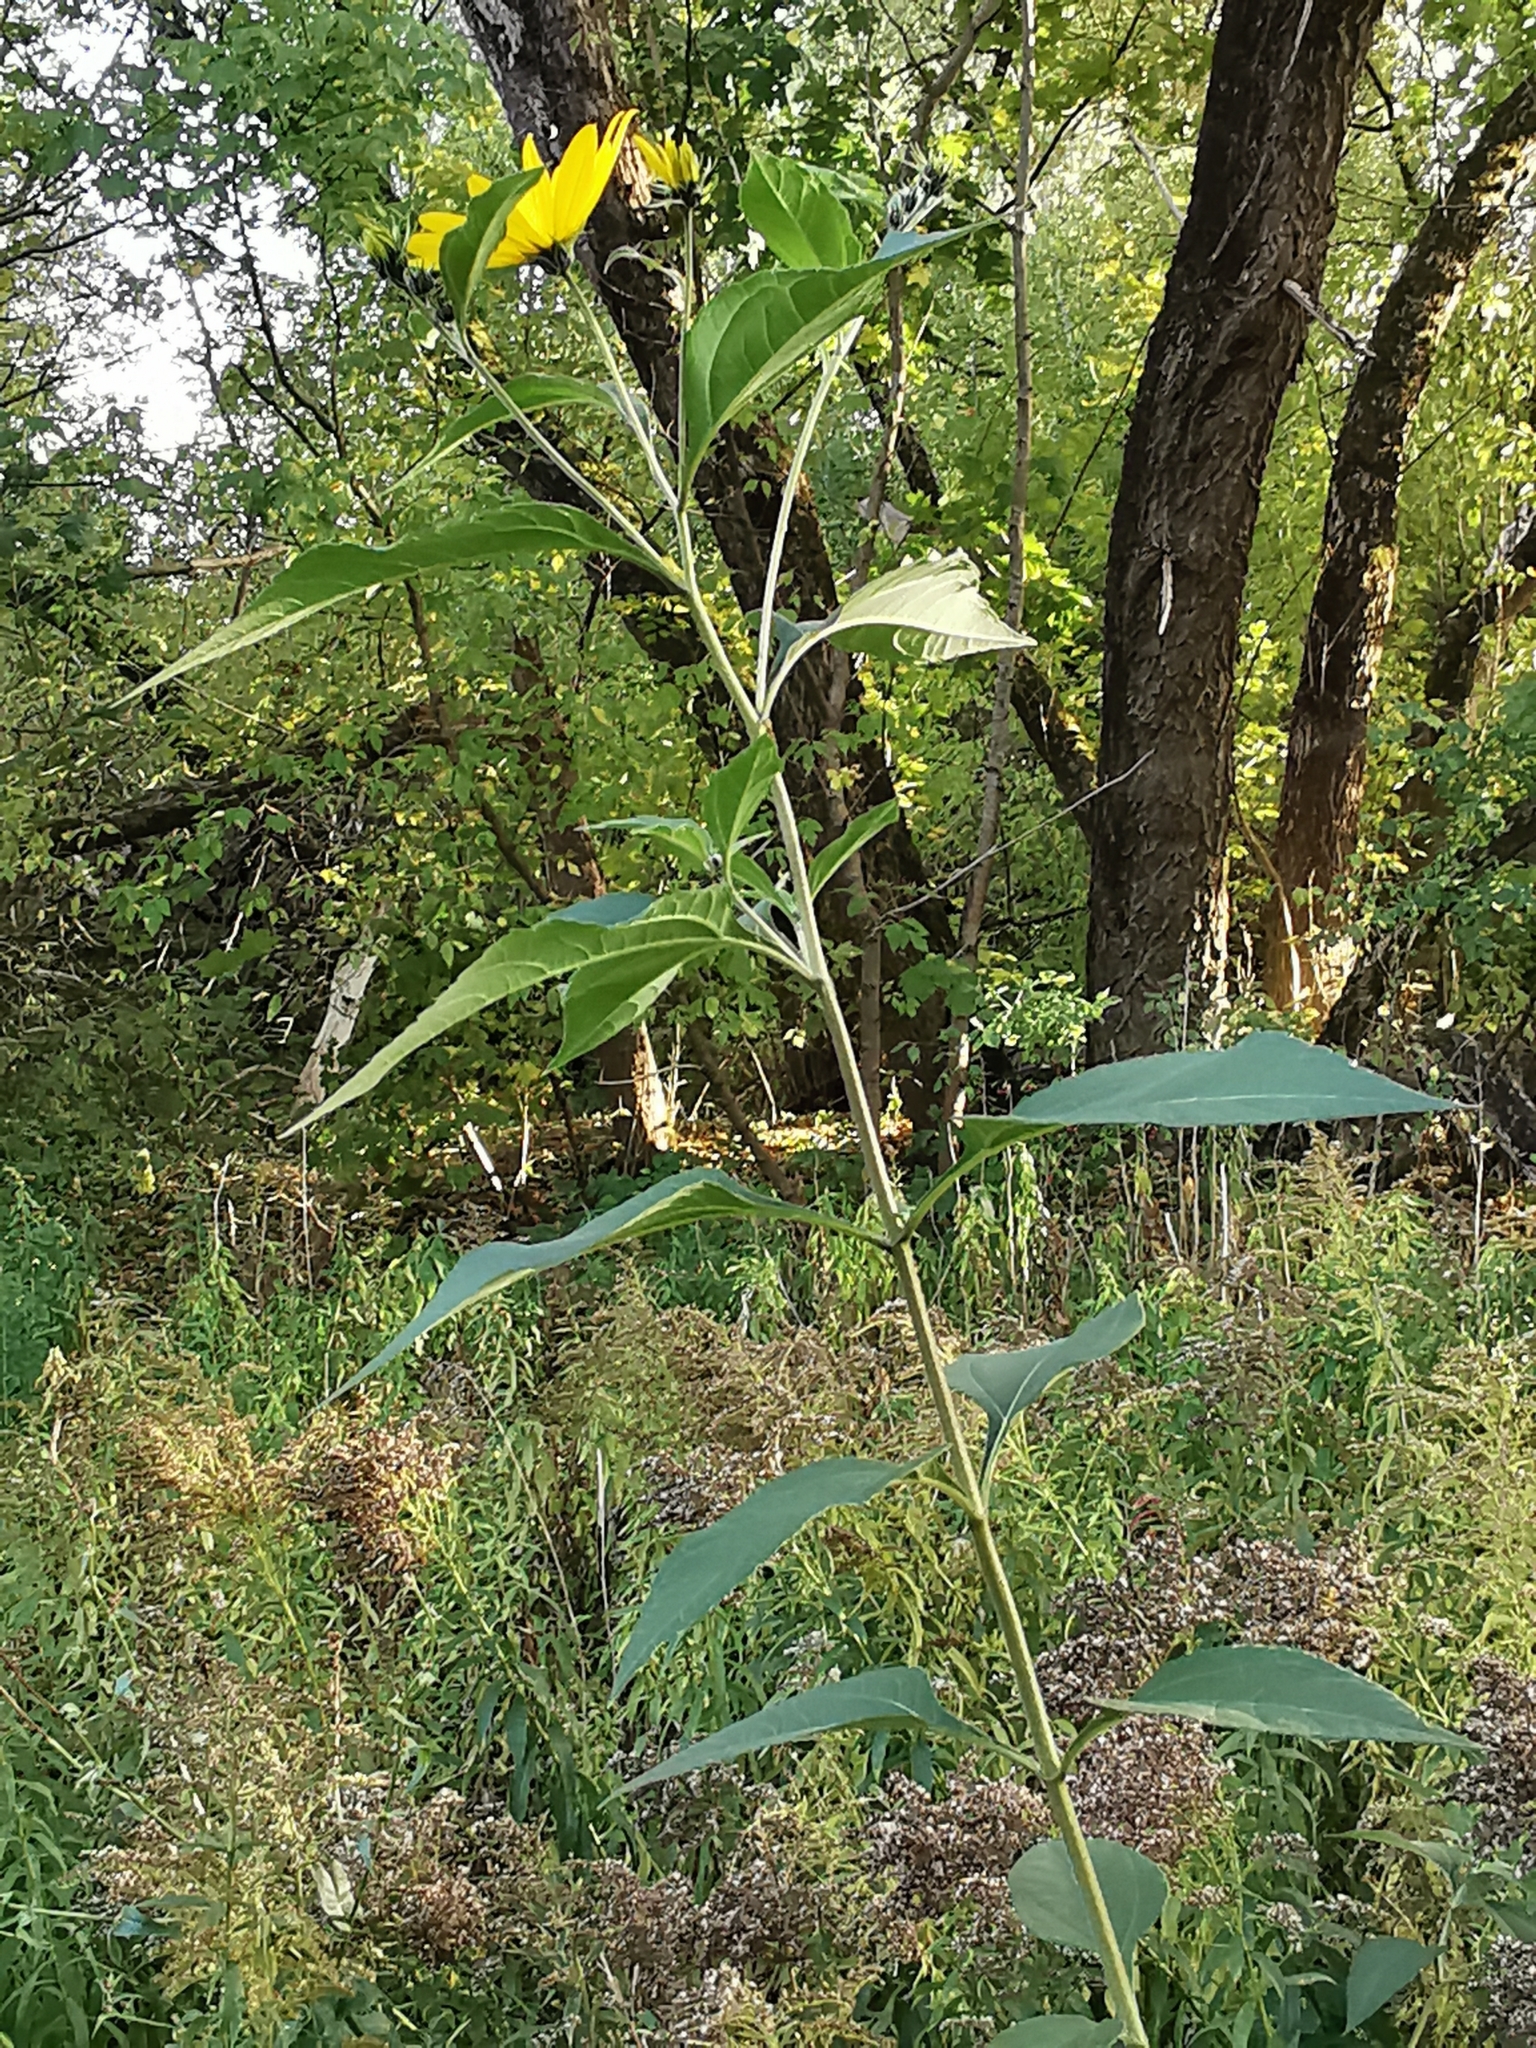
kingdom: Plantae
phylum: Tracheophyta
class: Magnoliopsida
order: Asterales
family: Asteraceae
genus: Helianthus
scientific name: Helianthus tuberosus
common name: Jerusalem artichoke
